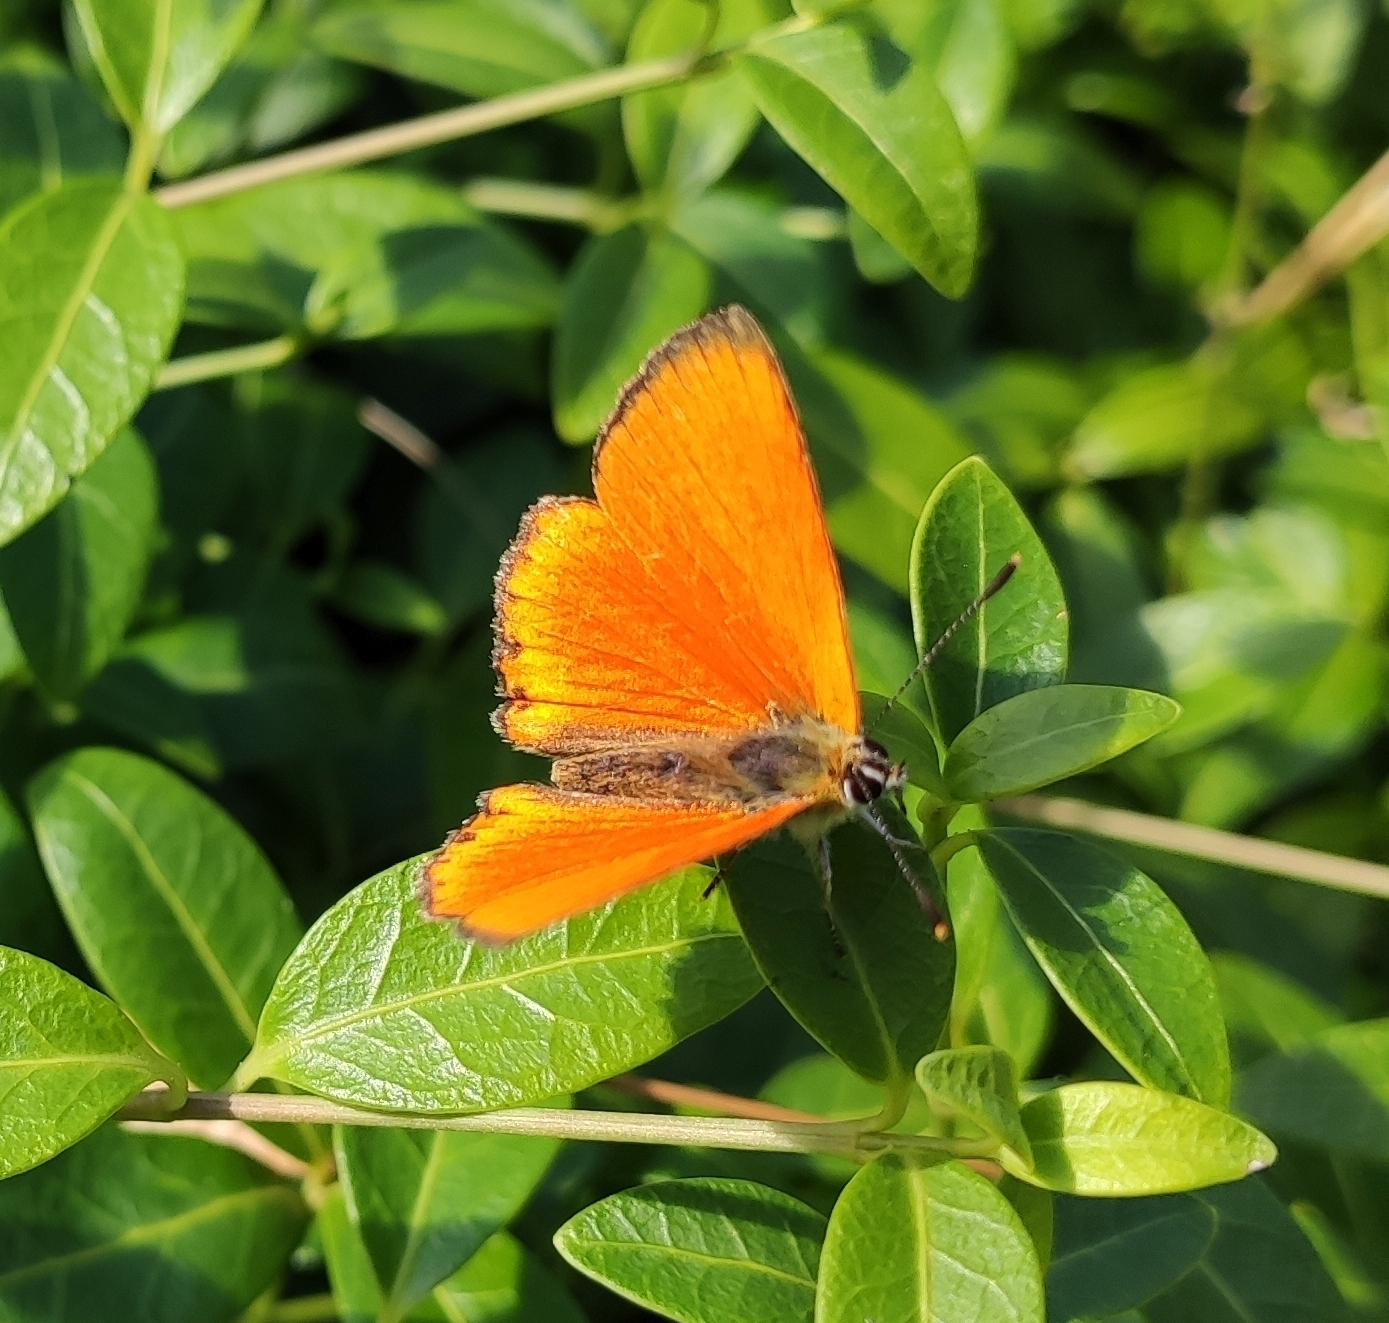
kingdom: Animalia
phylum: Arthropoda
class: Insecta
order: Lepidoptera
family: Lycaenidae
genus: Lycaena
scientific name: Lycaena virgaureae
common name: Scarce copper
